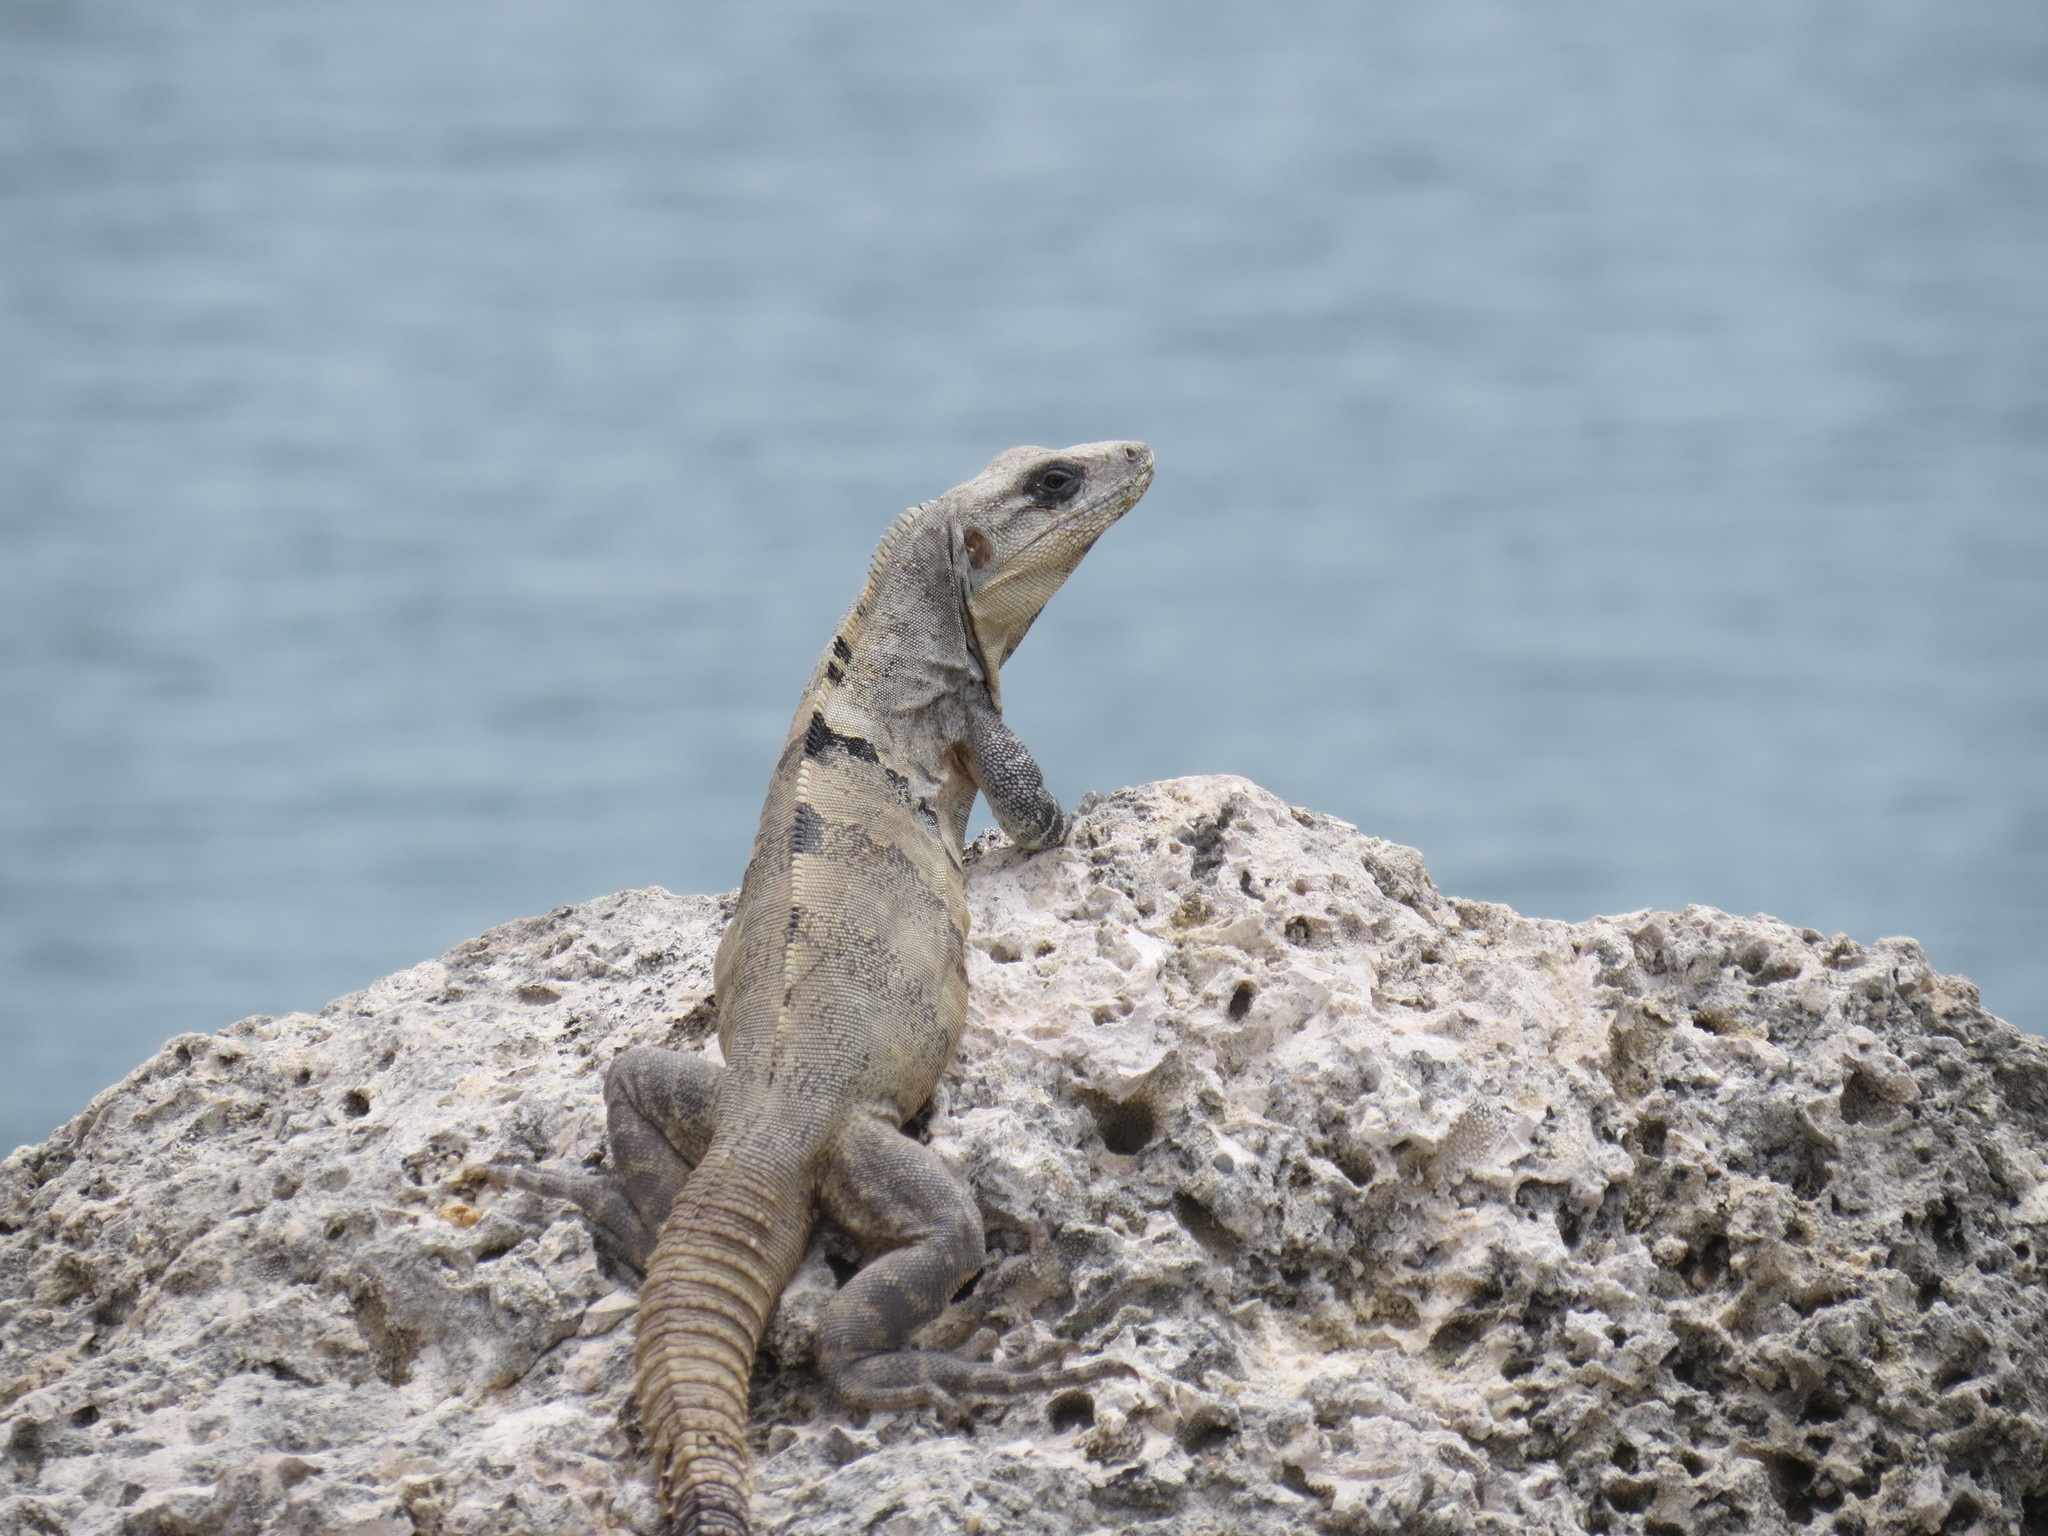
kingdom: Animalia
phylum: Chordata
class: Squamata
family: Iguanidae
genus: Ctenosaura
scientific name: Ctenosaura similis
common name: Black spiny-tailed iguana
